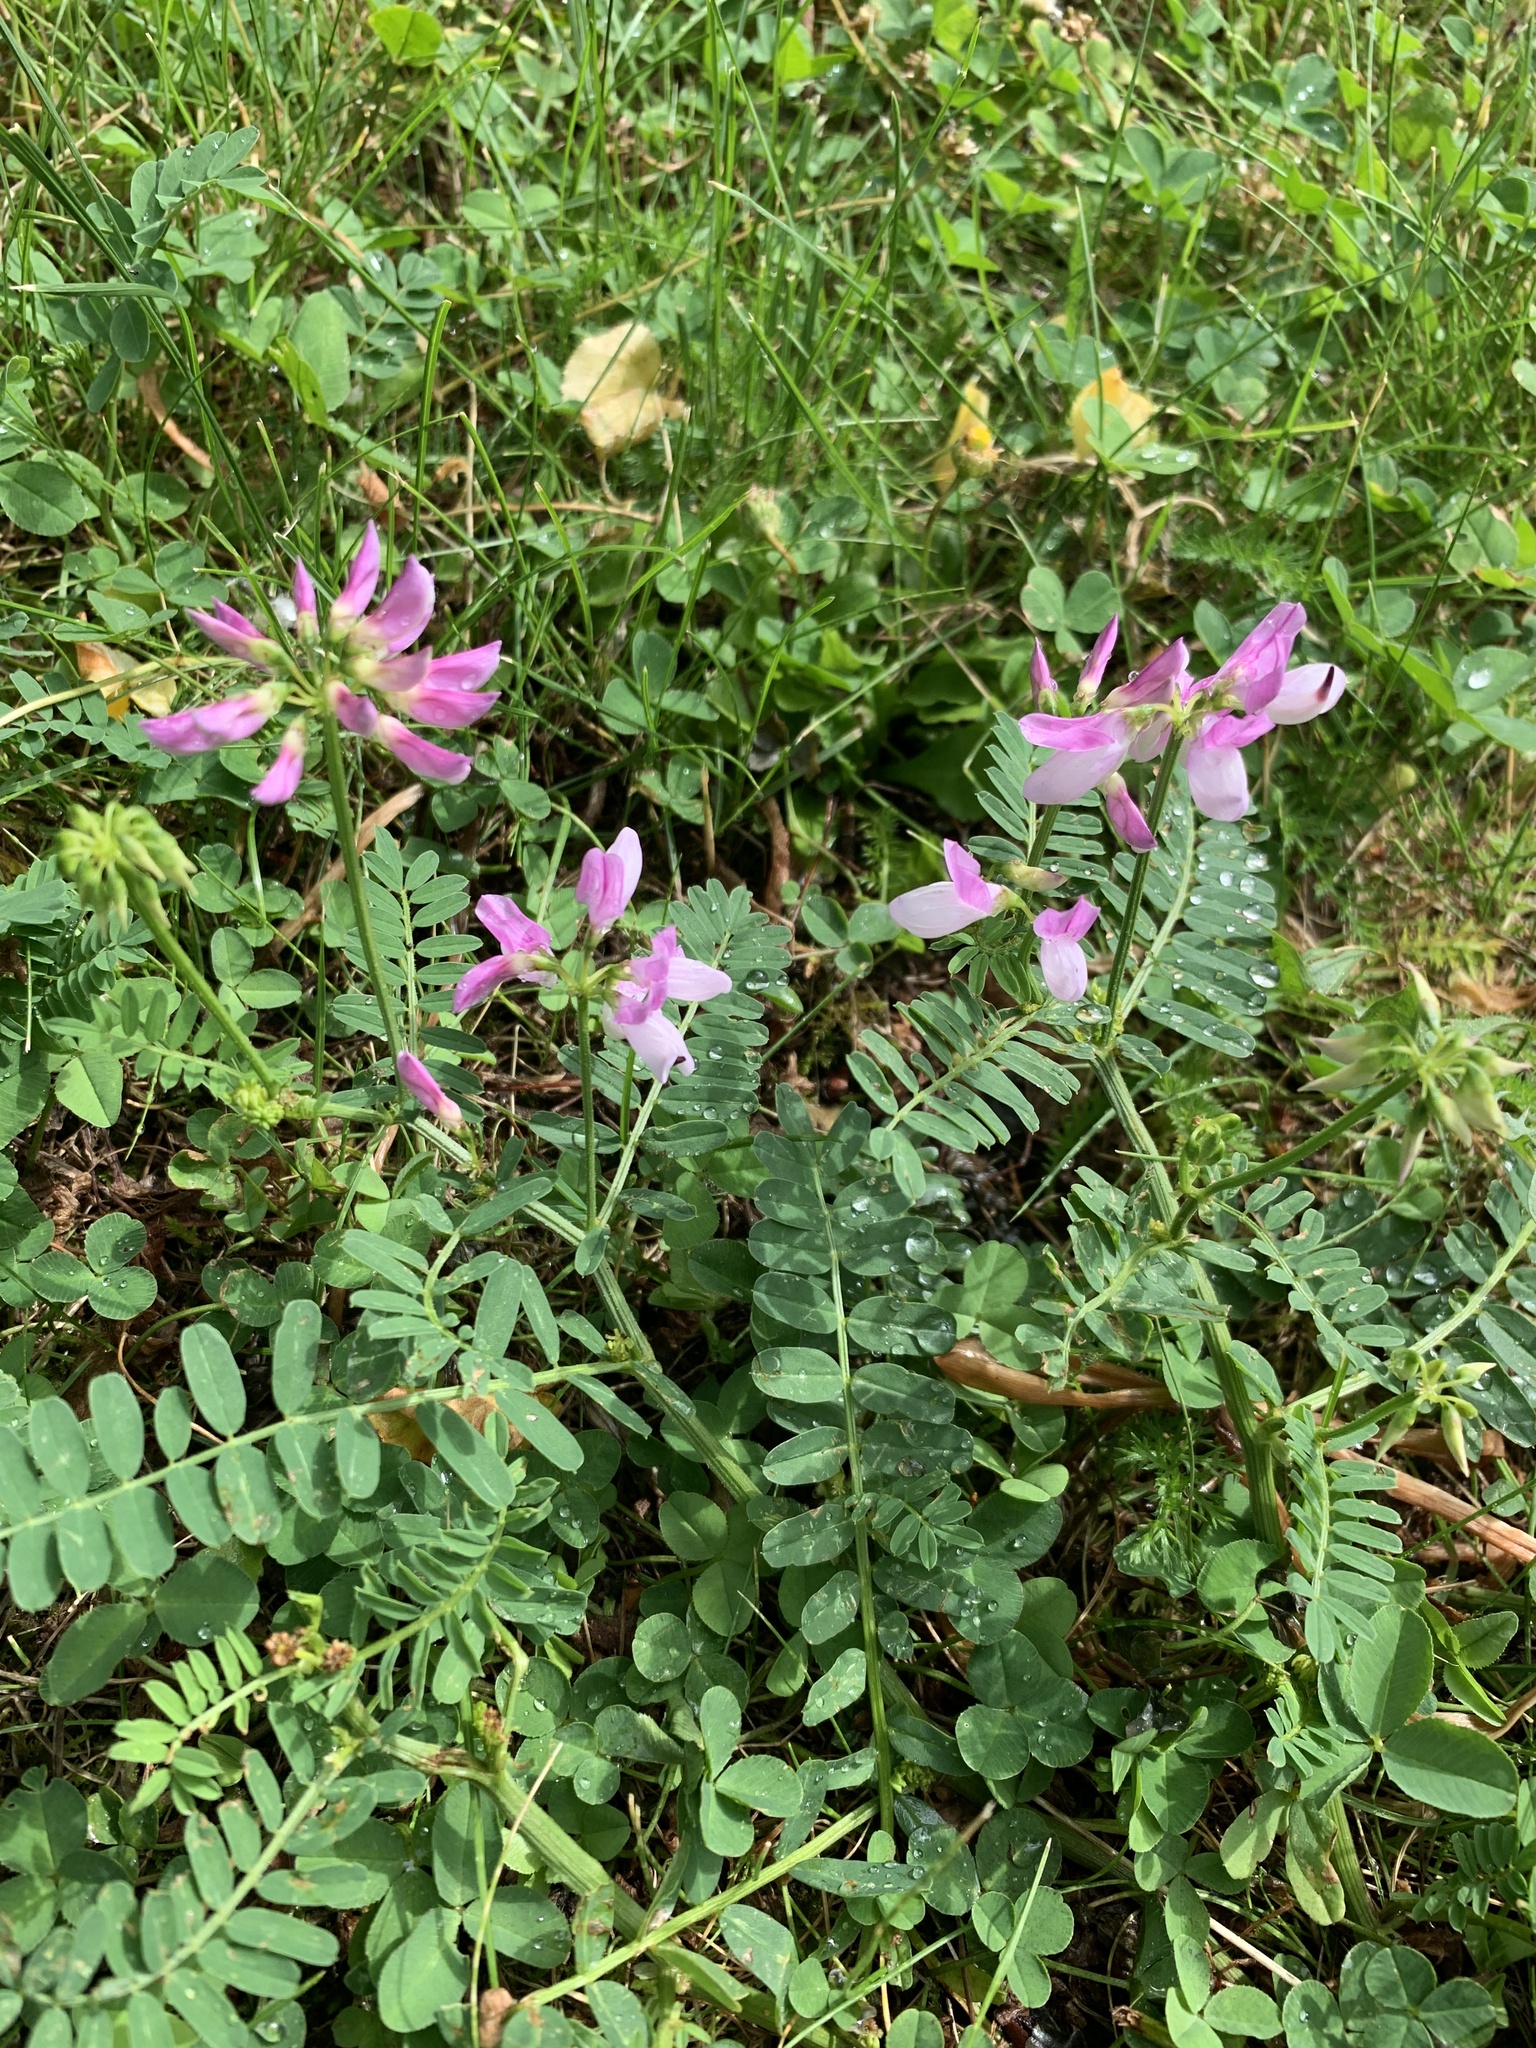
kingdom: Plantae
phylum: Tracheophyta
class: Magnoliopsida
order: Fabales
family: Fabaceae
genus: Coronilla
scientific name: Coronilla varia
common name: Crownvetch
